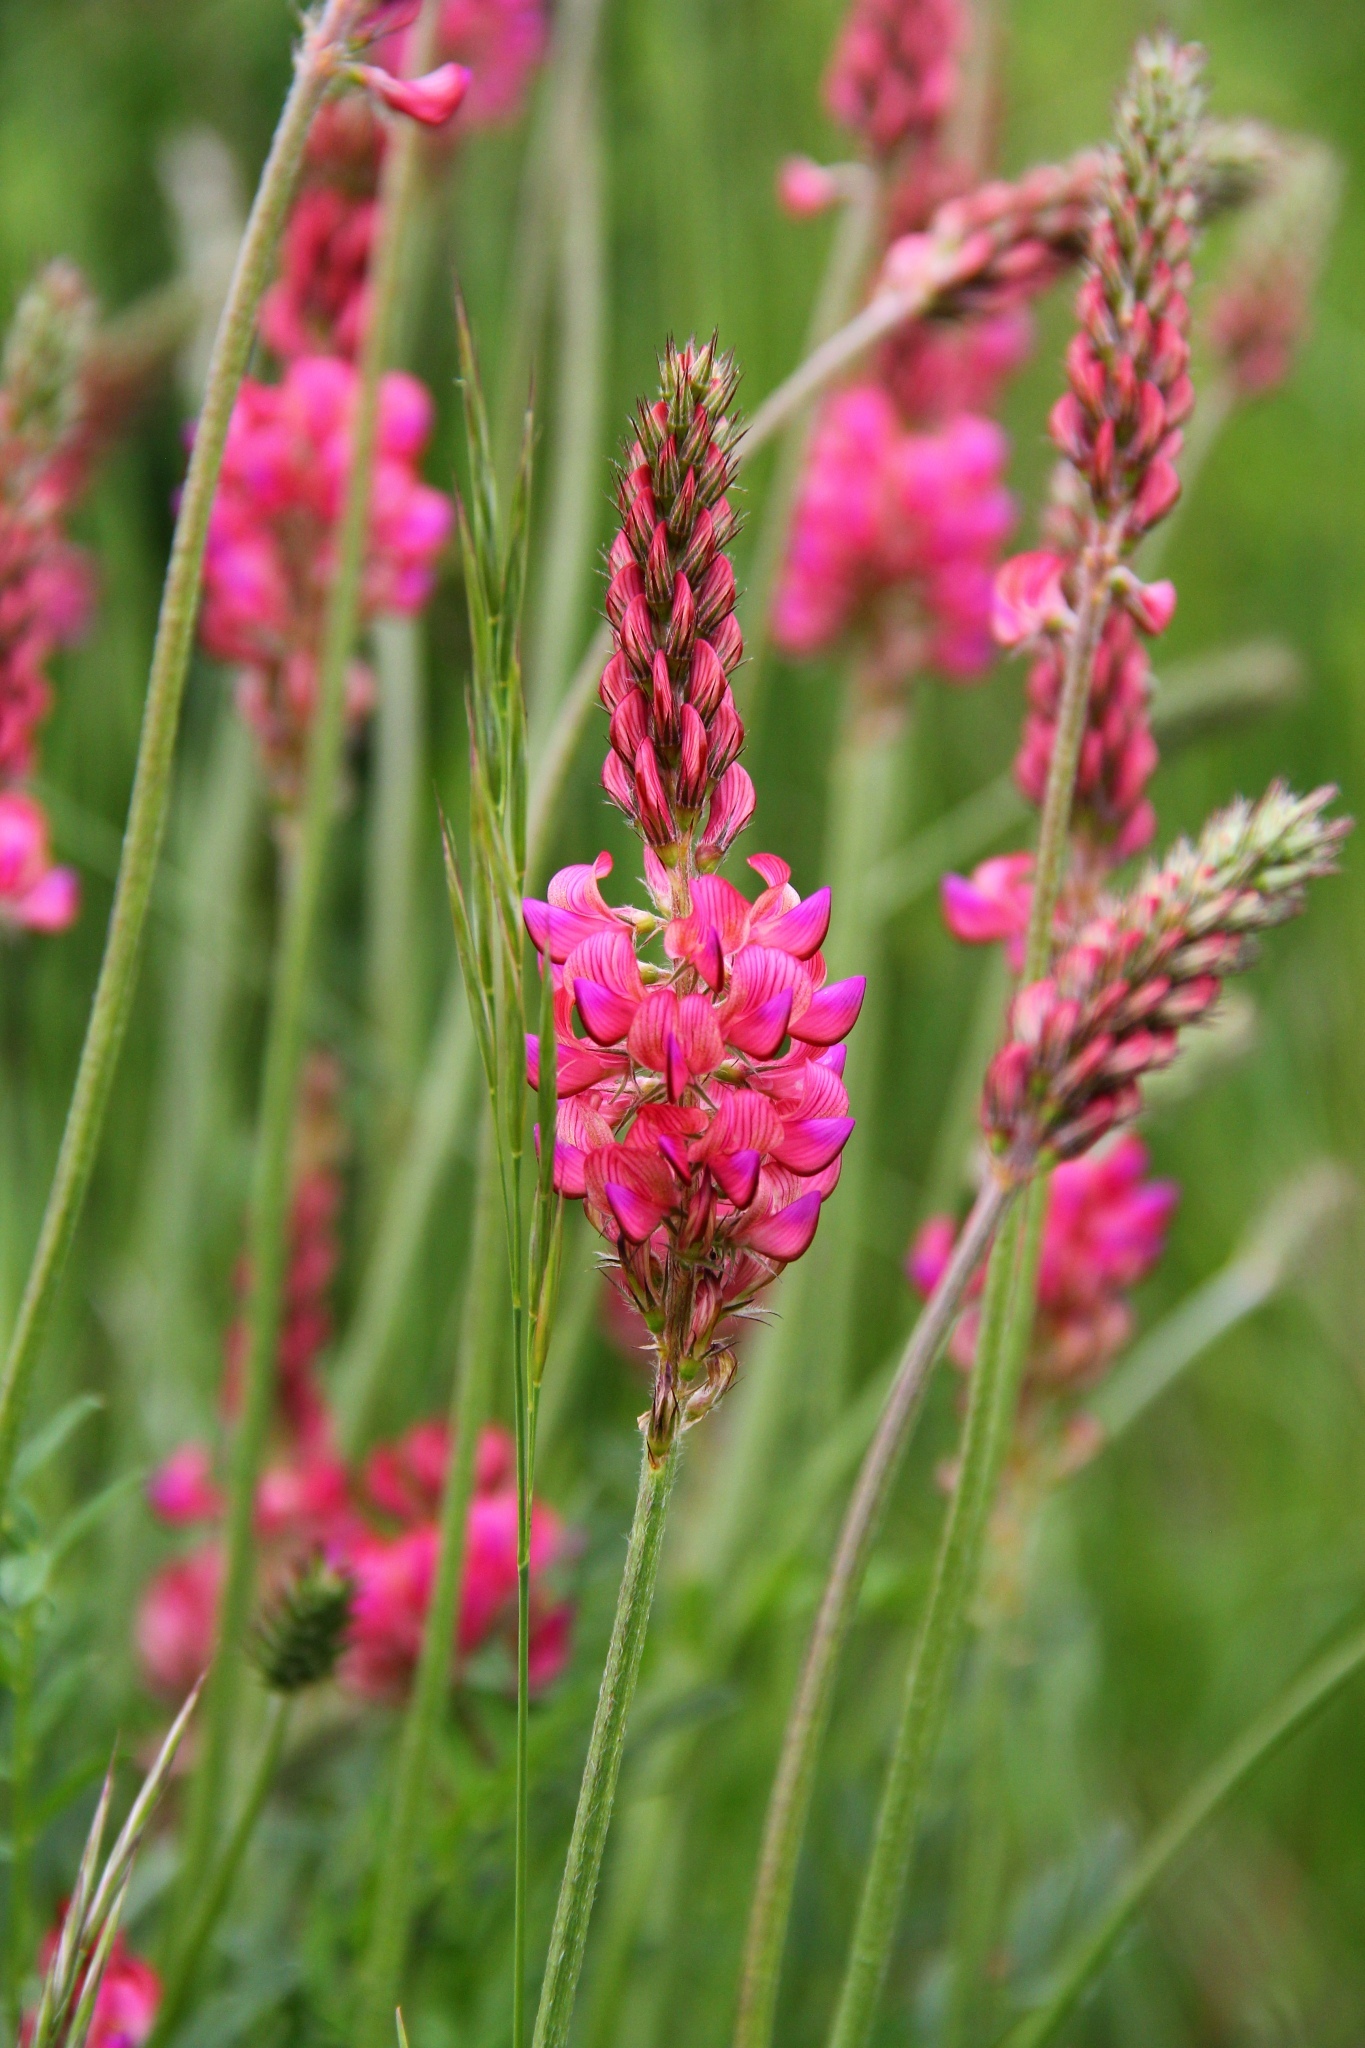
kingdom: Plantae
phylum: Tracheophyta
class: Magnoliopsida
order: Fabales
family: Fabaceae
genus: Onobrychis
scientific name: Onobrychis viciifolia
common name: Sainfoin
